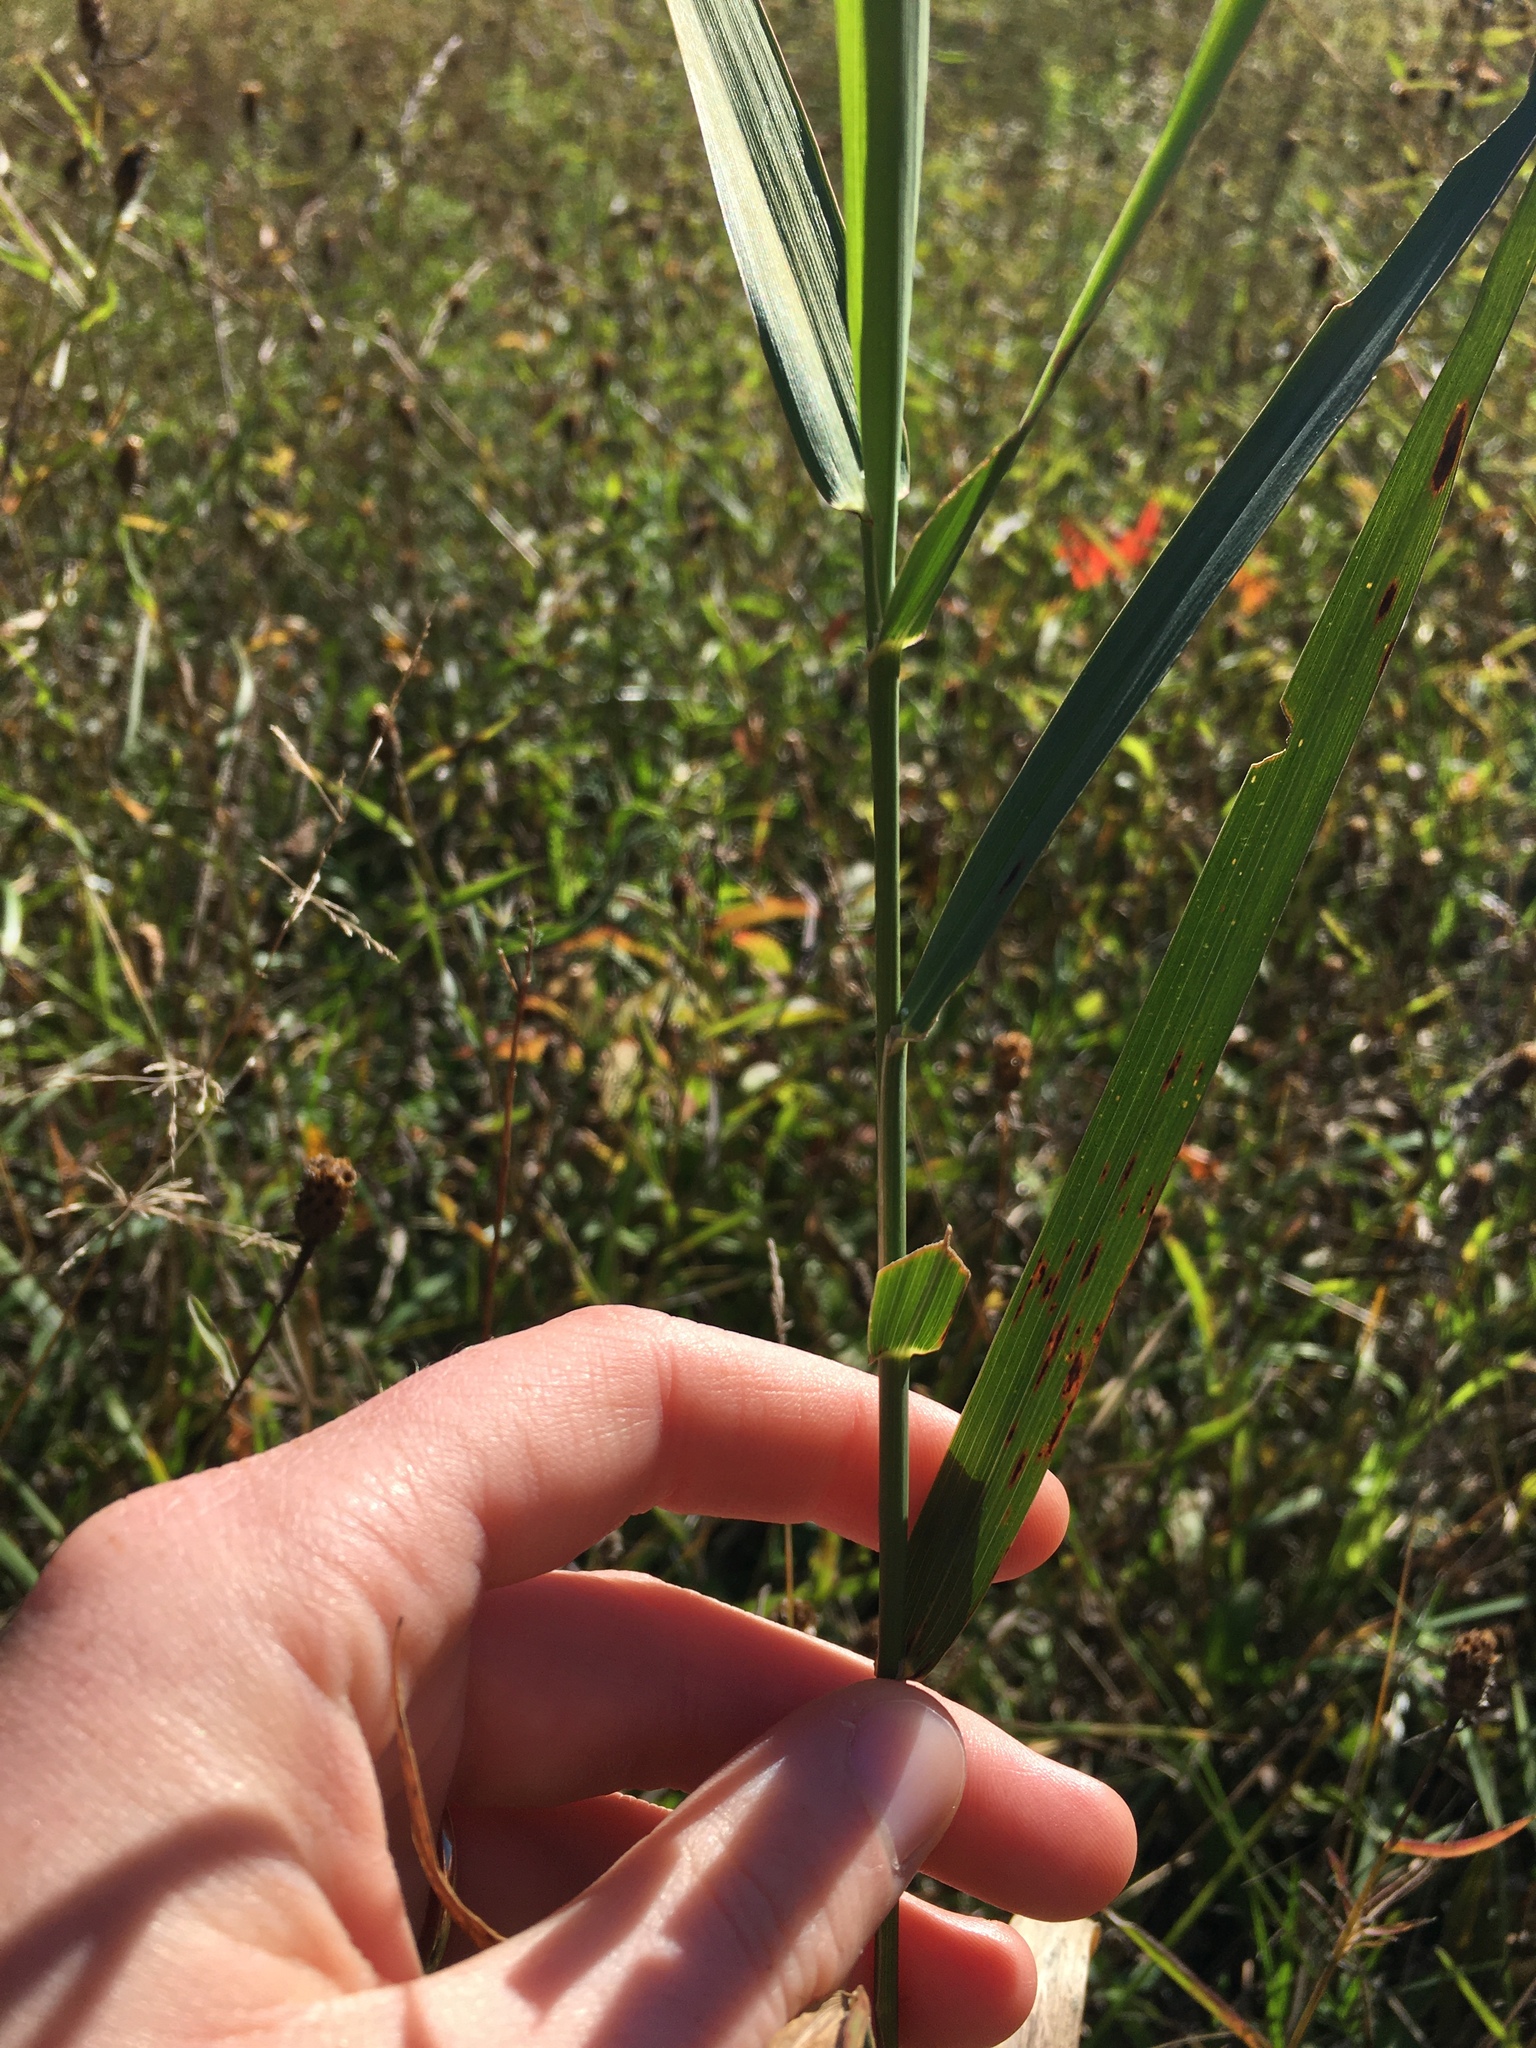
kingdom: Plantae
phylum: Tracheophyta
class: Liliopsida
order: Poales
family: Poaceae
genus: Phalaris
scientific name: Phalaris arundinacea
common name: Reed canary-grass
